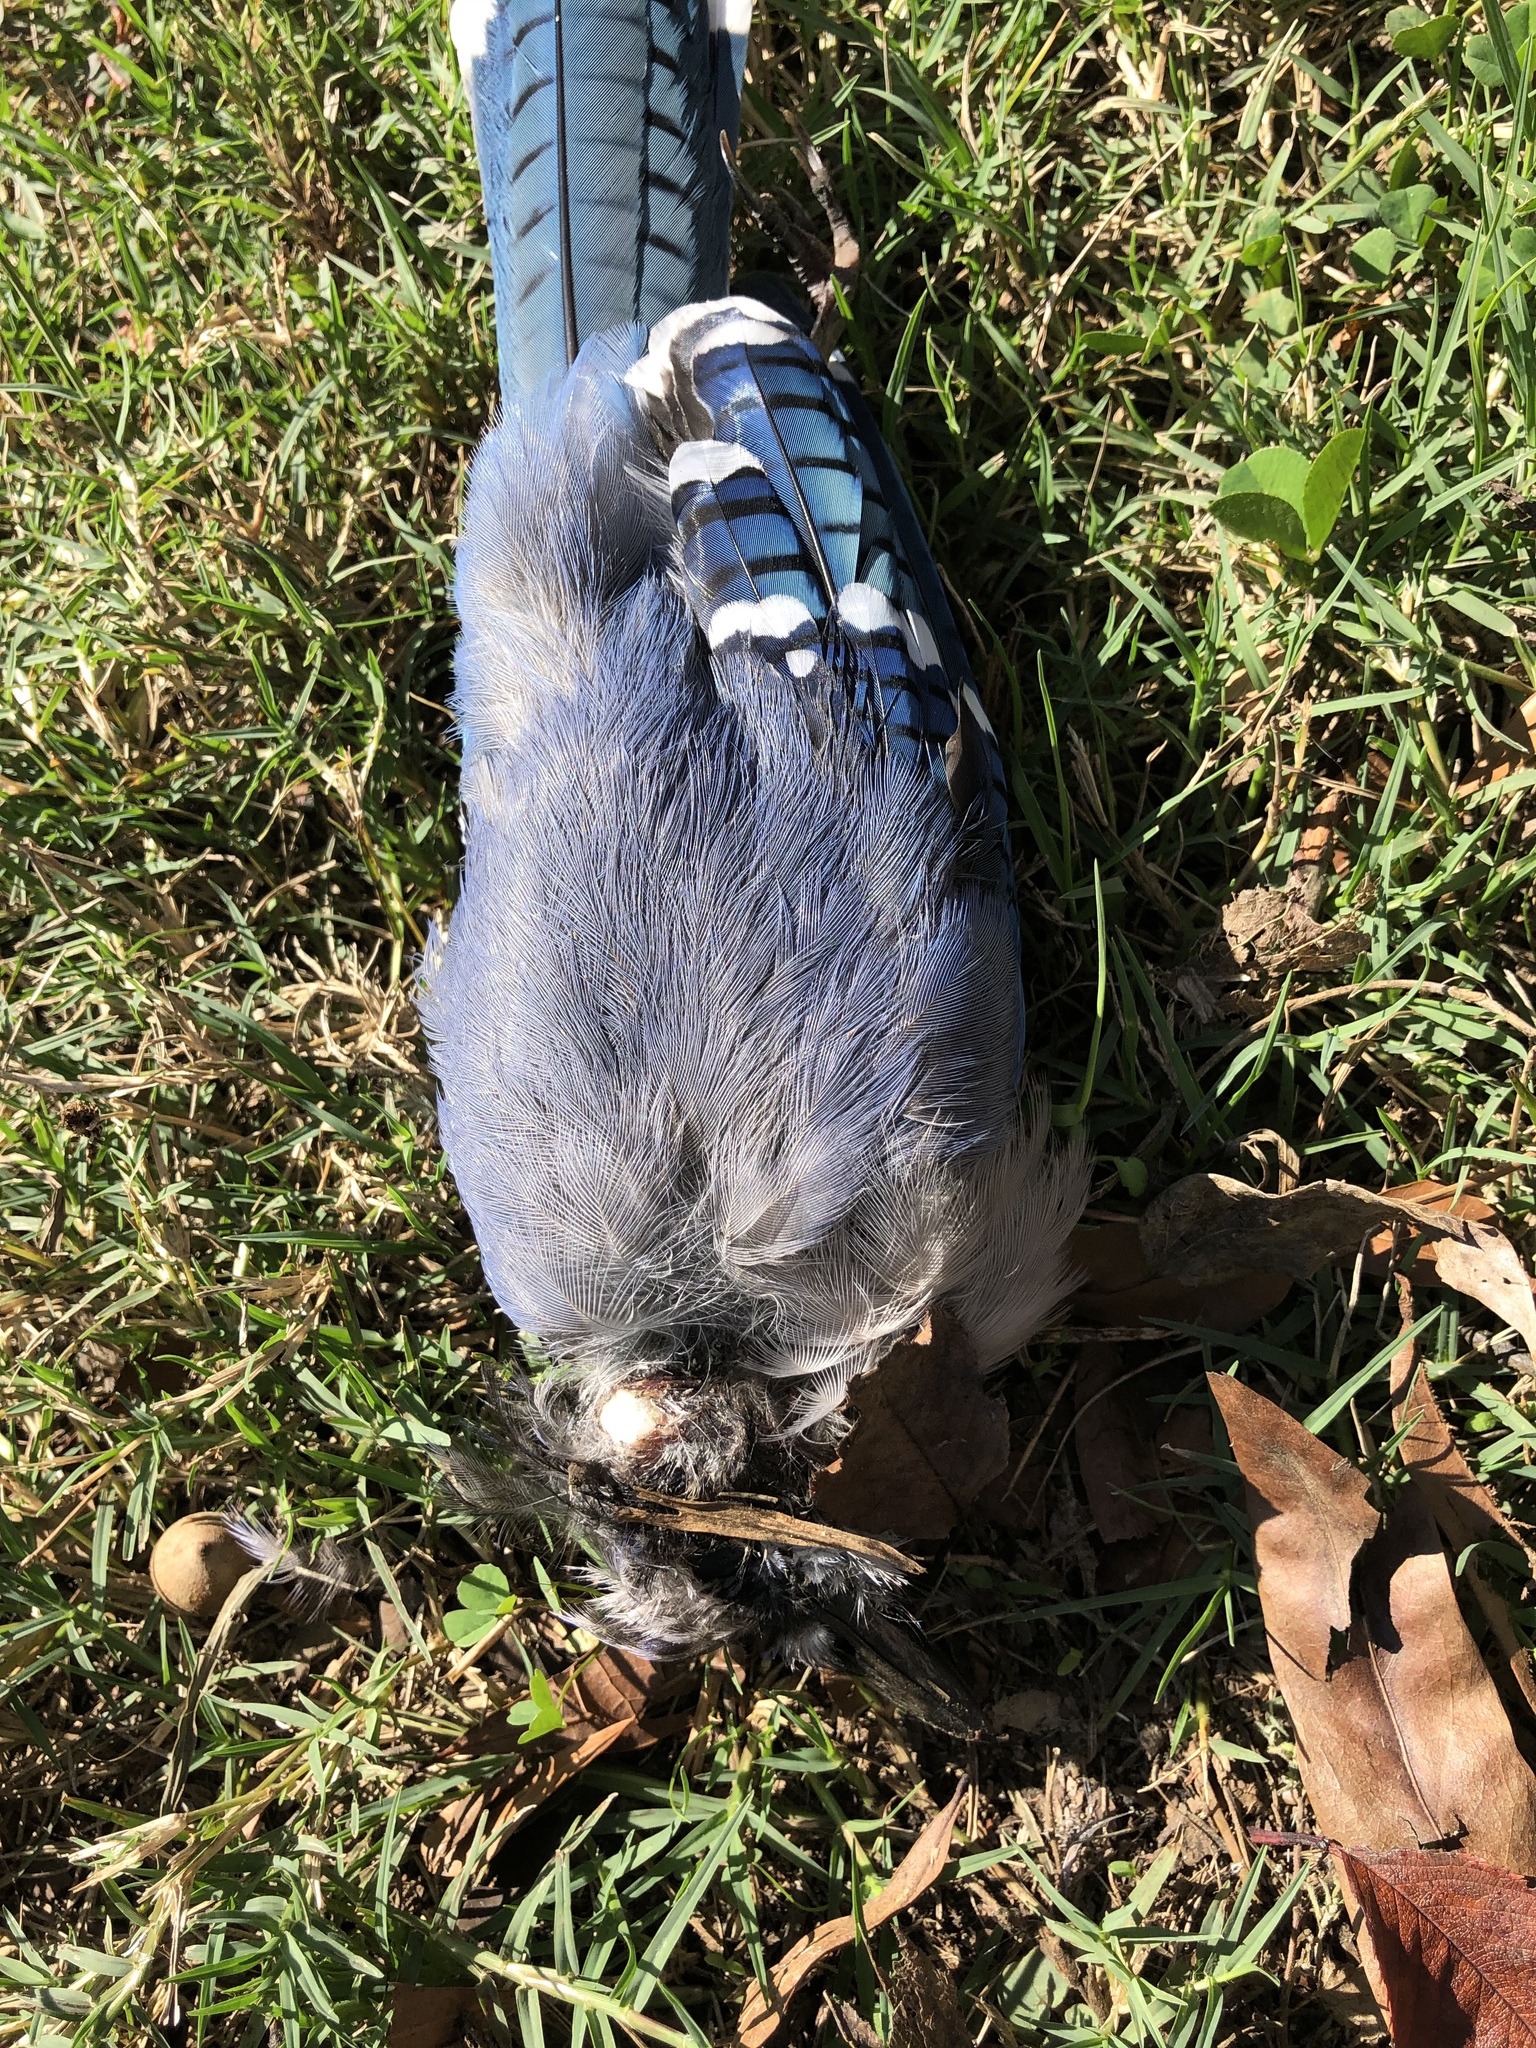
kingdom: Animalia
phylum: Chordata
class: Aves
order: Passeriformes
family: Corvidae
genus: Cyanocitta
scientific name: Cyanocitta cristata
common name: Blue jay
